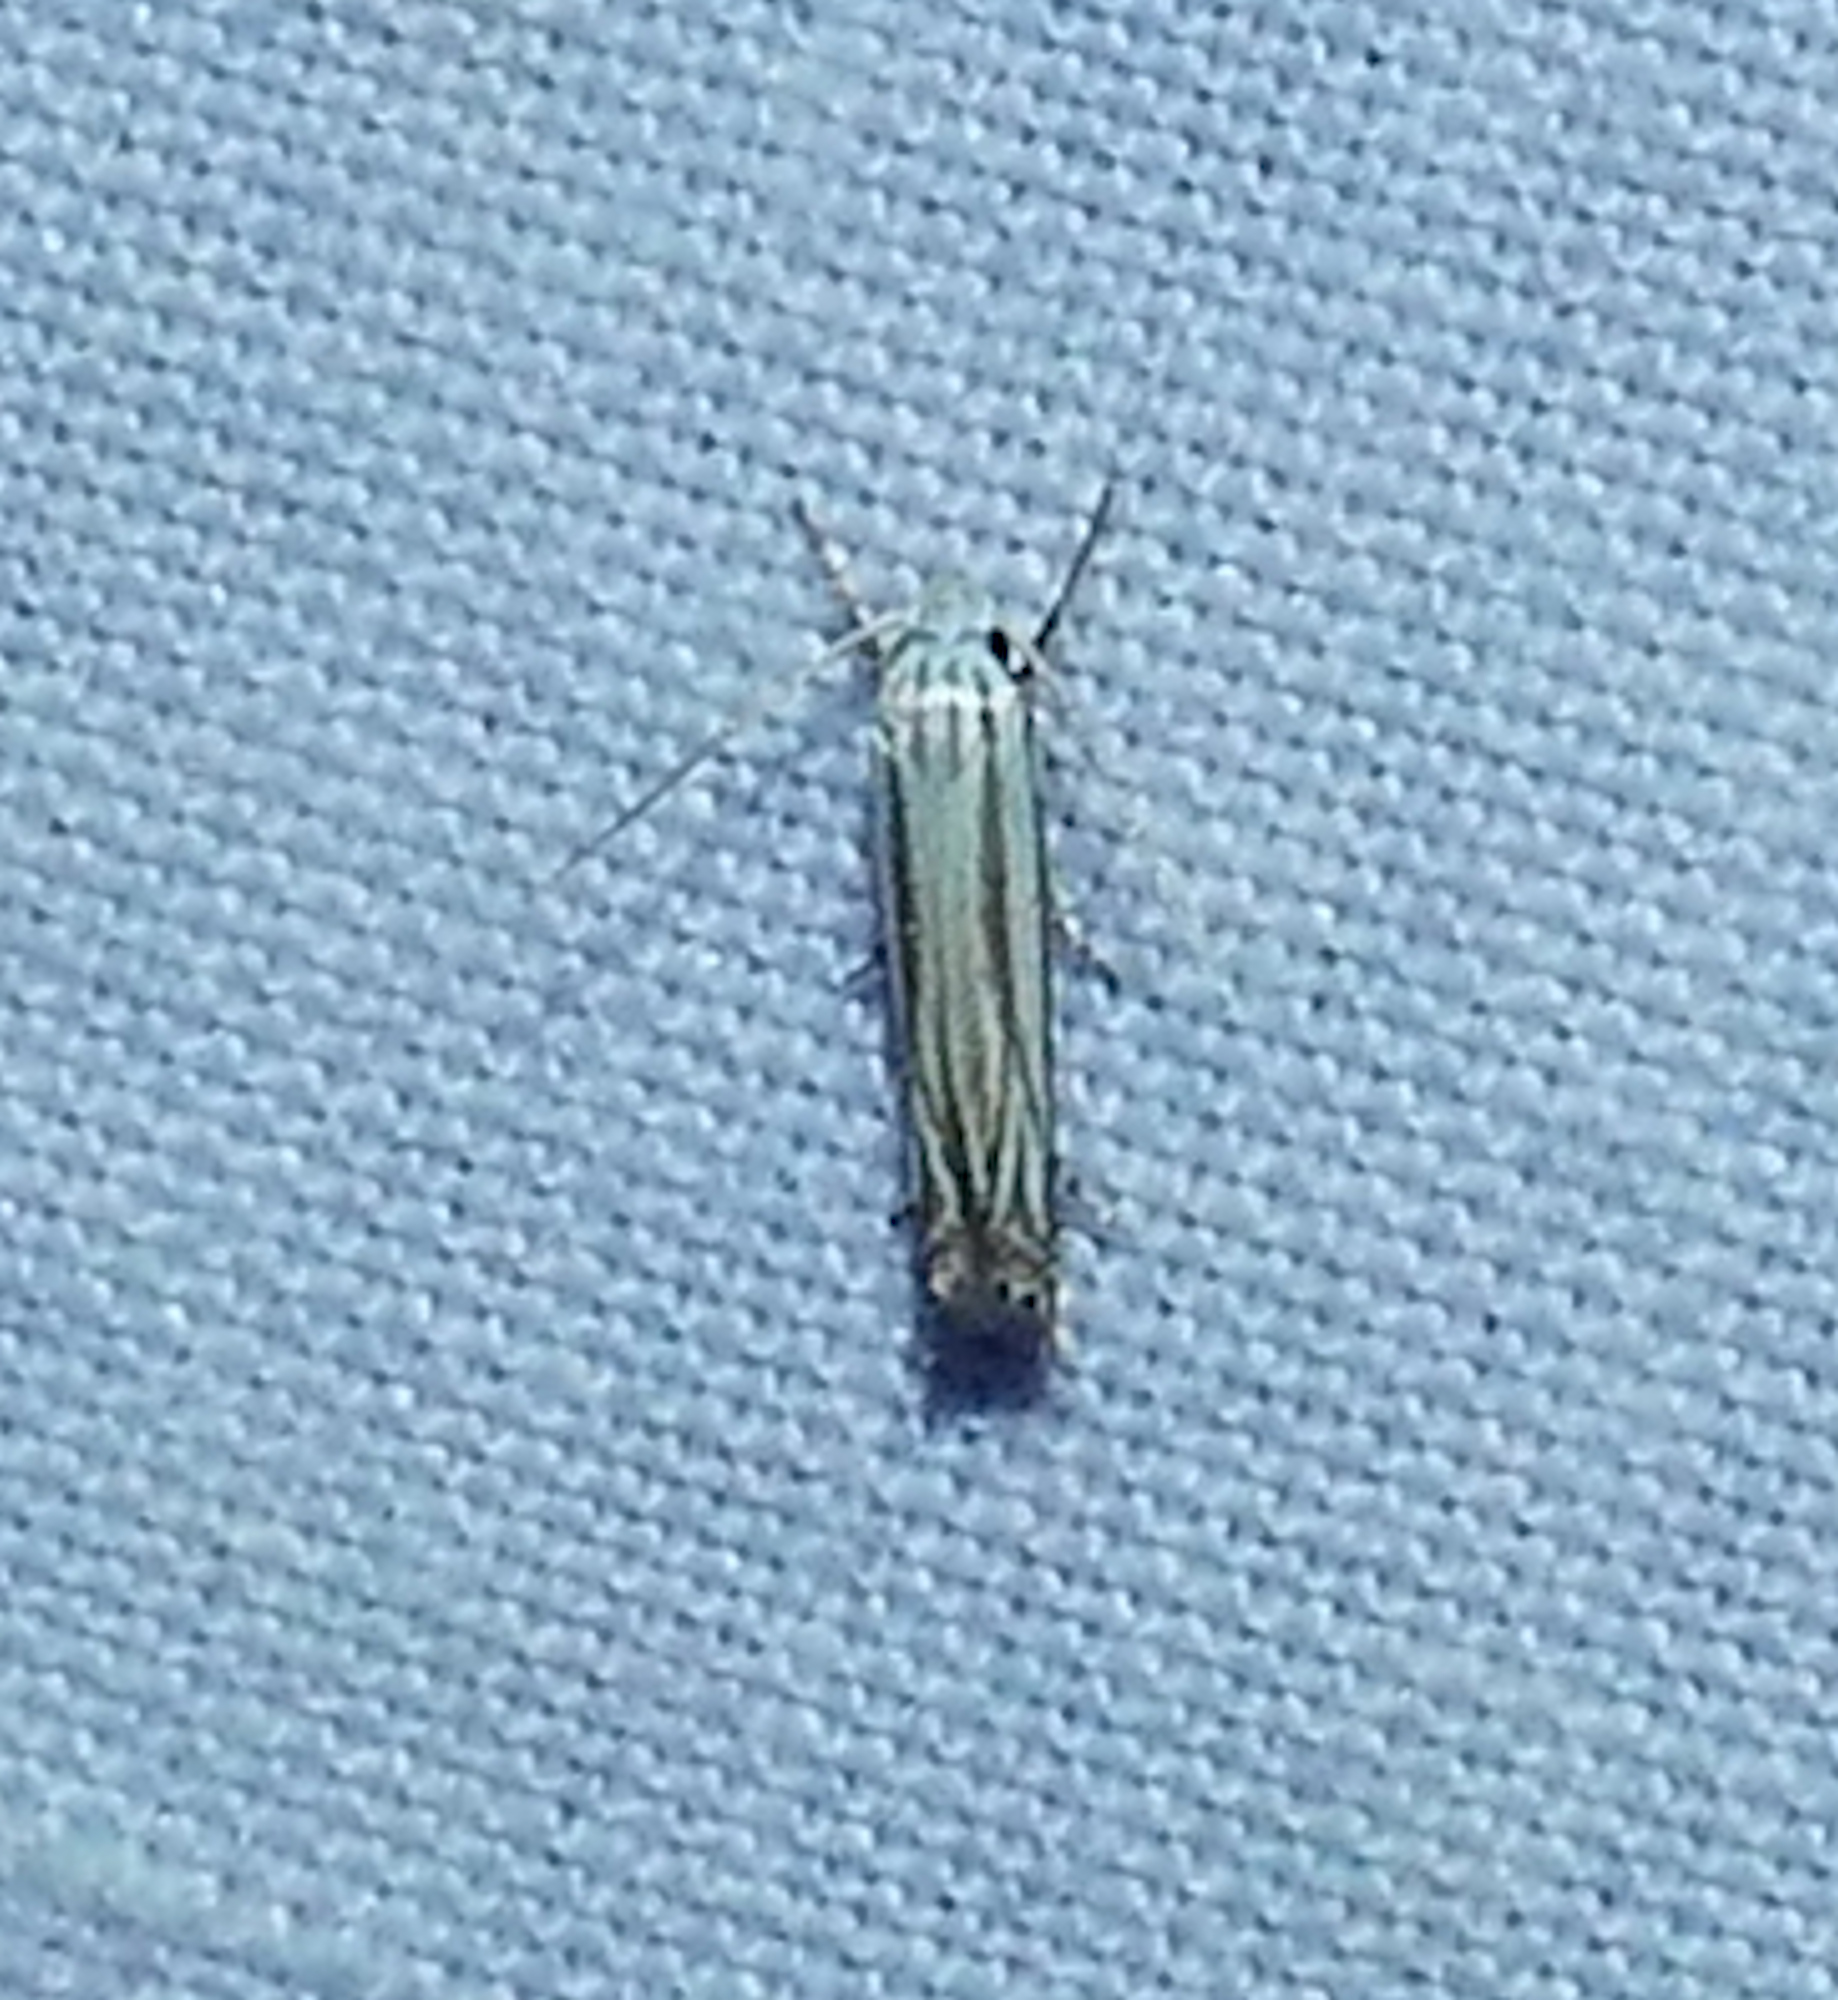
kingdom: Animalia
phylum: Arthropoda
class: Insecta
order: Lepidoptera
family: Gelechiidae
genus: Polyhymno
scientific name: Polyhymno luteostrigella
